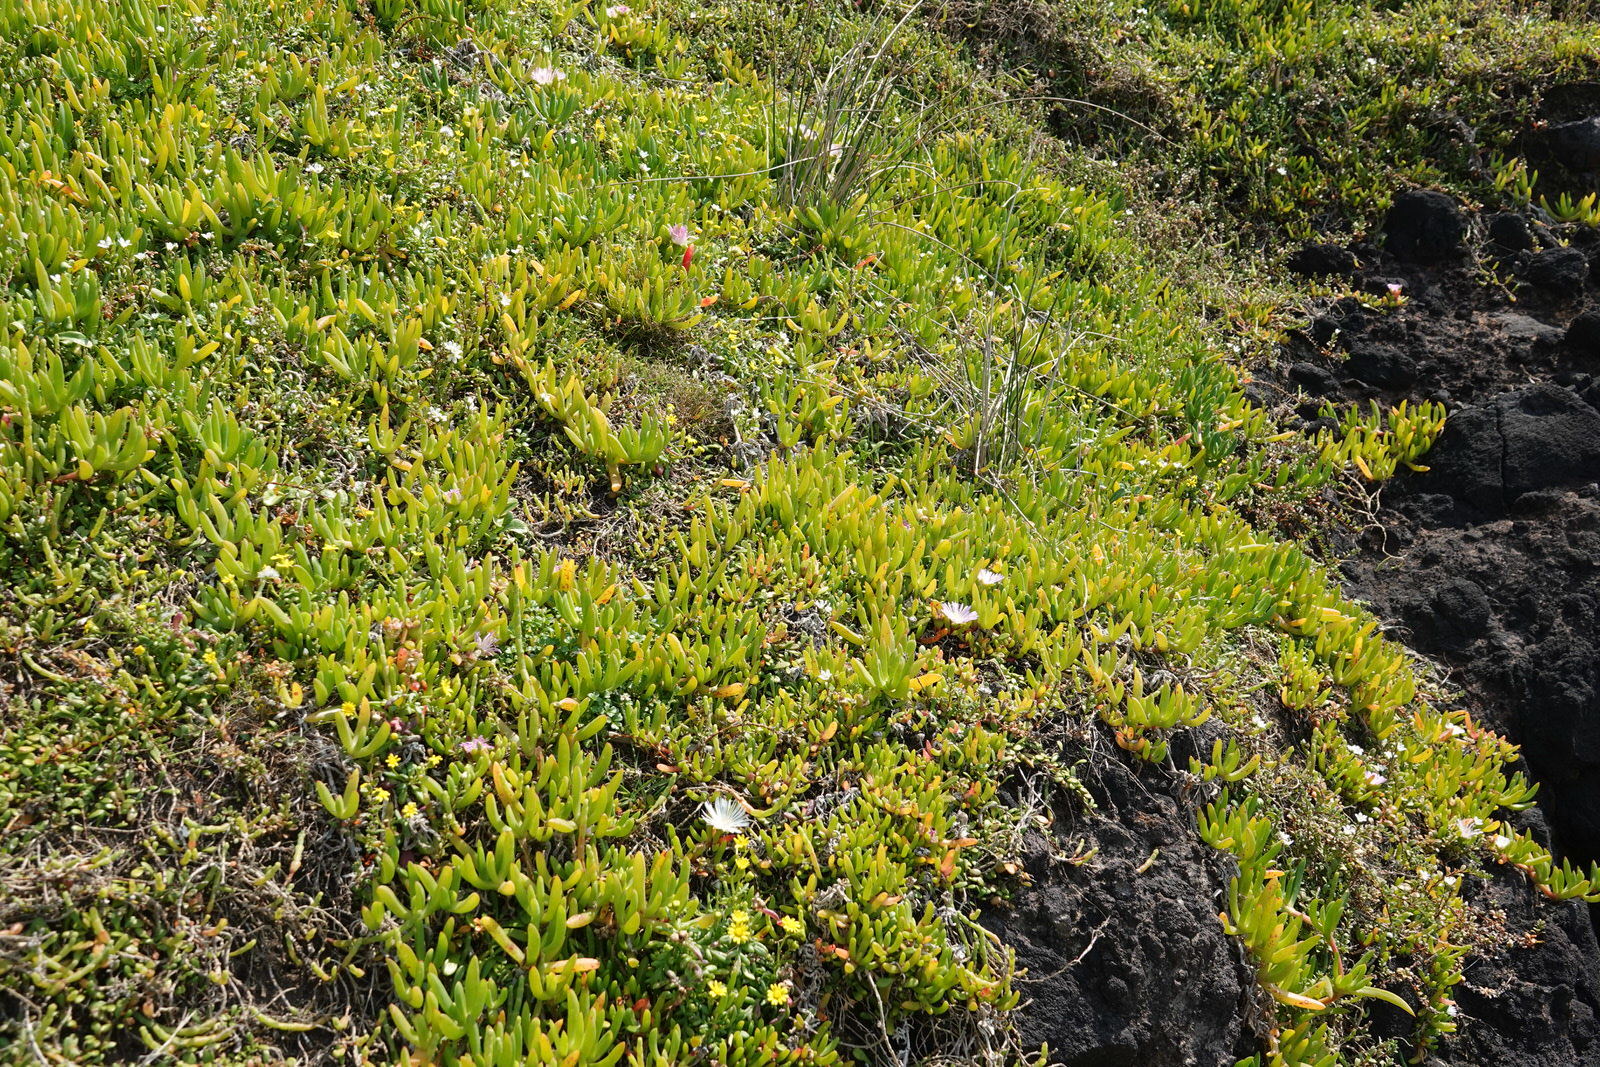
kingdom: Plantae
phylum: Tracheophyta
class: Magnoliopsida
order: Caryophyllales
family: Aizoaceae
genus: Disphyma
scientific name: Disphyma australe
